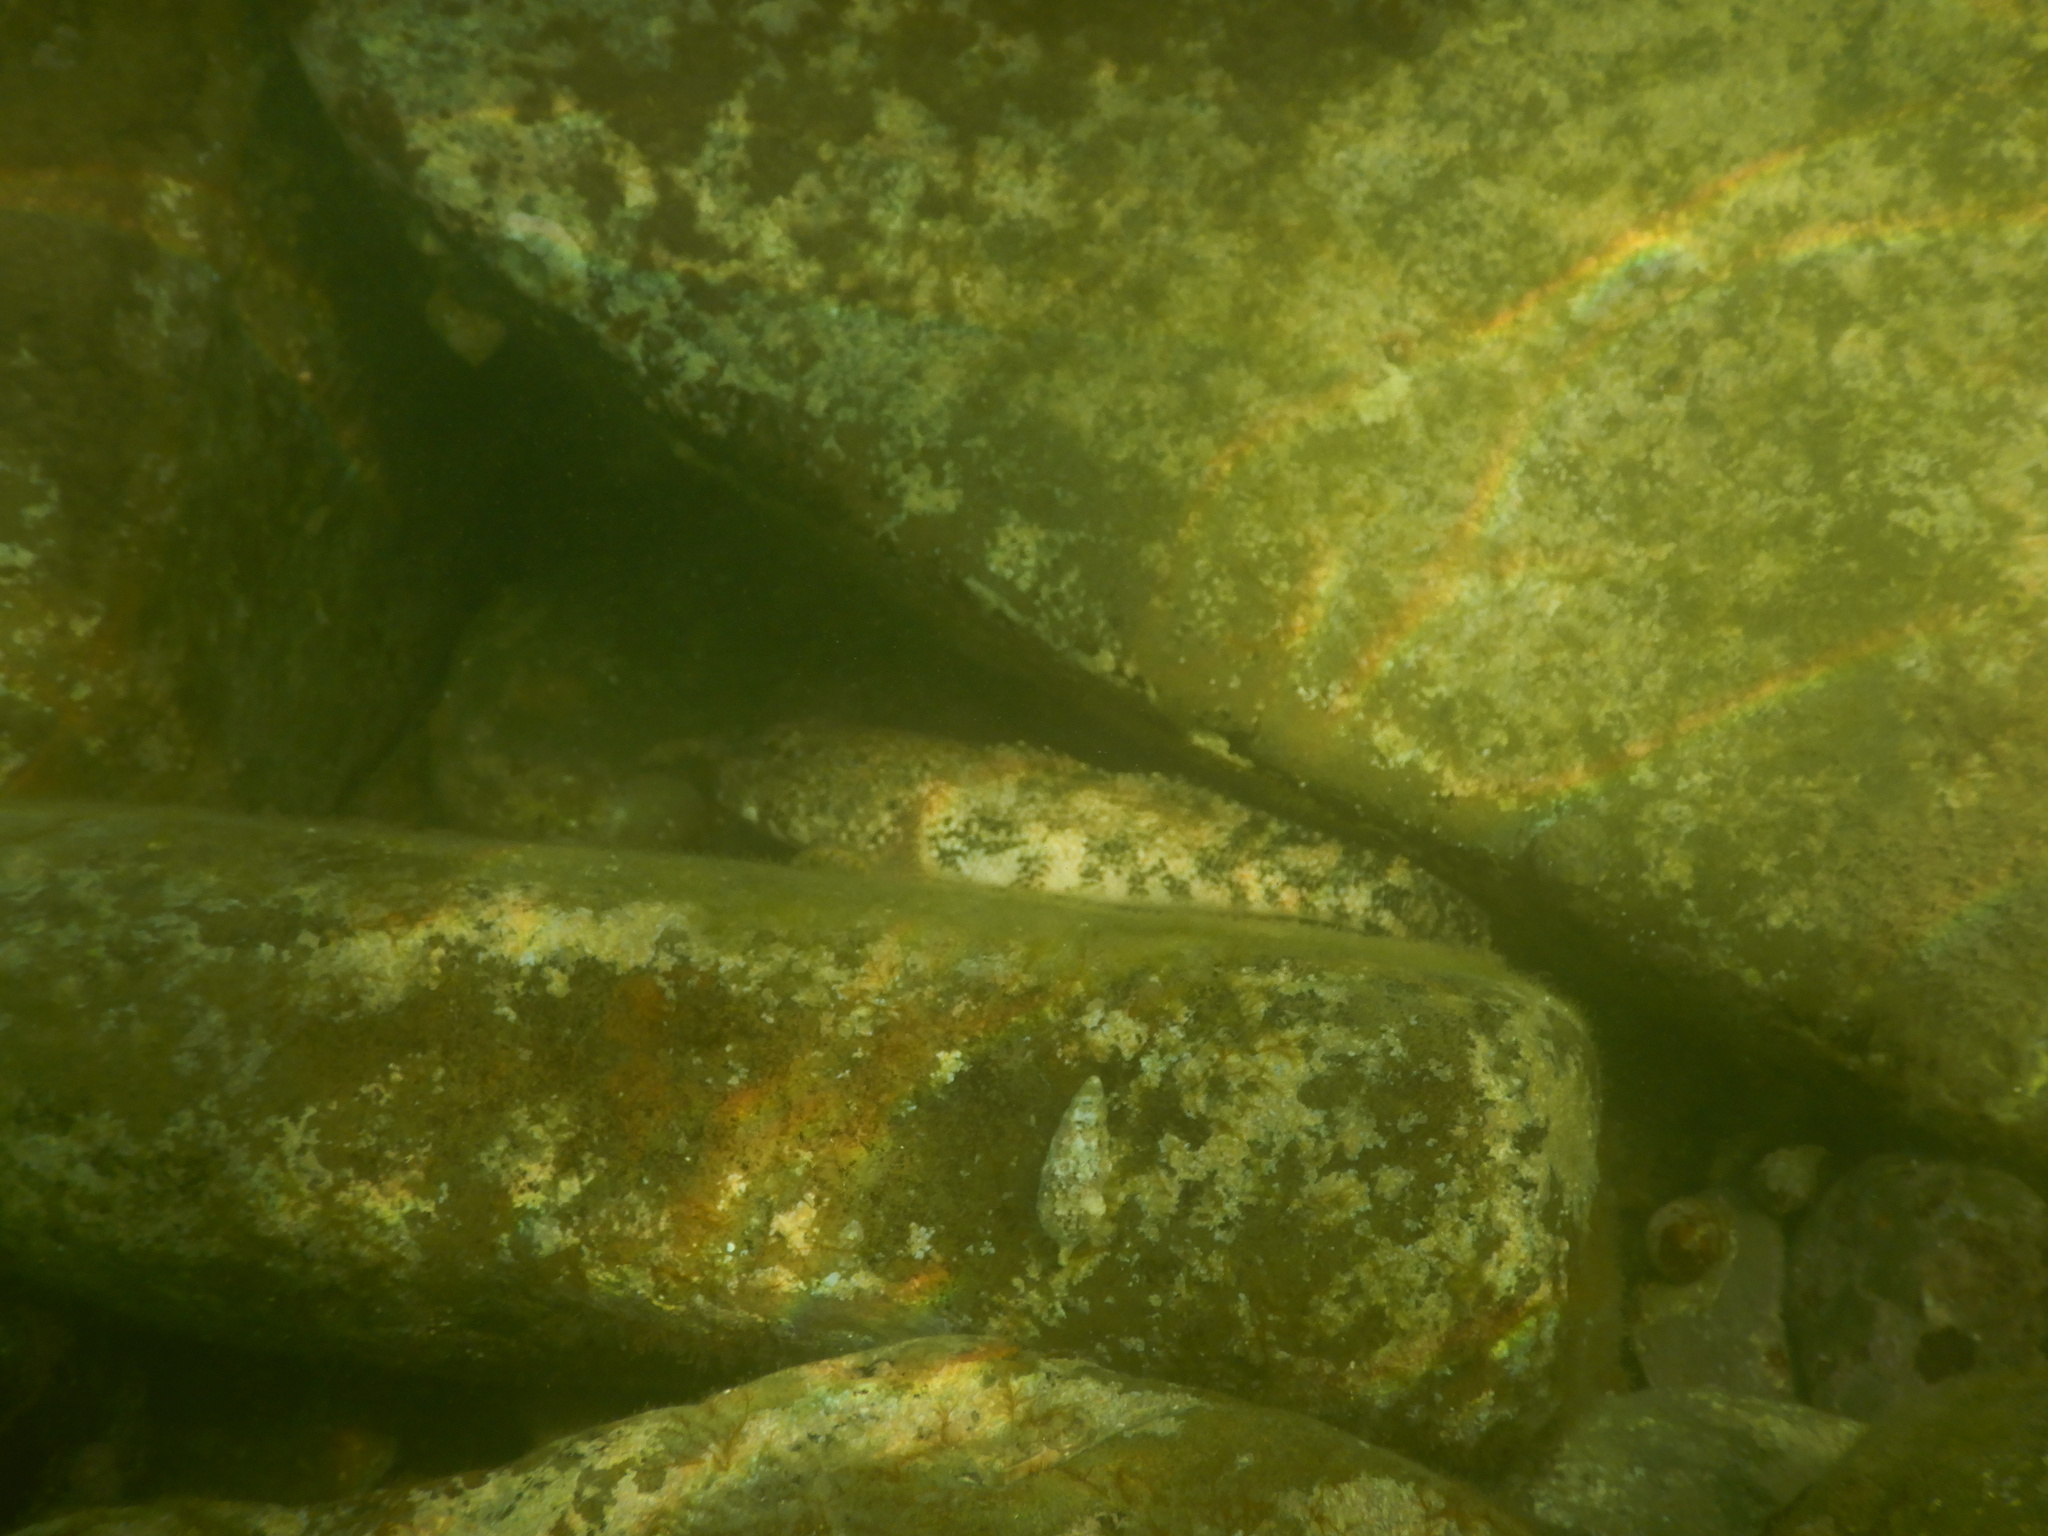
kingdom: Animalia
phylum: Chordata
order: Perciformes
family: Gobiidae
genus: Gobius
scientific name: Gobius cobitis
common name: Giant goby
